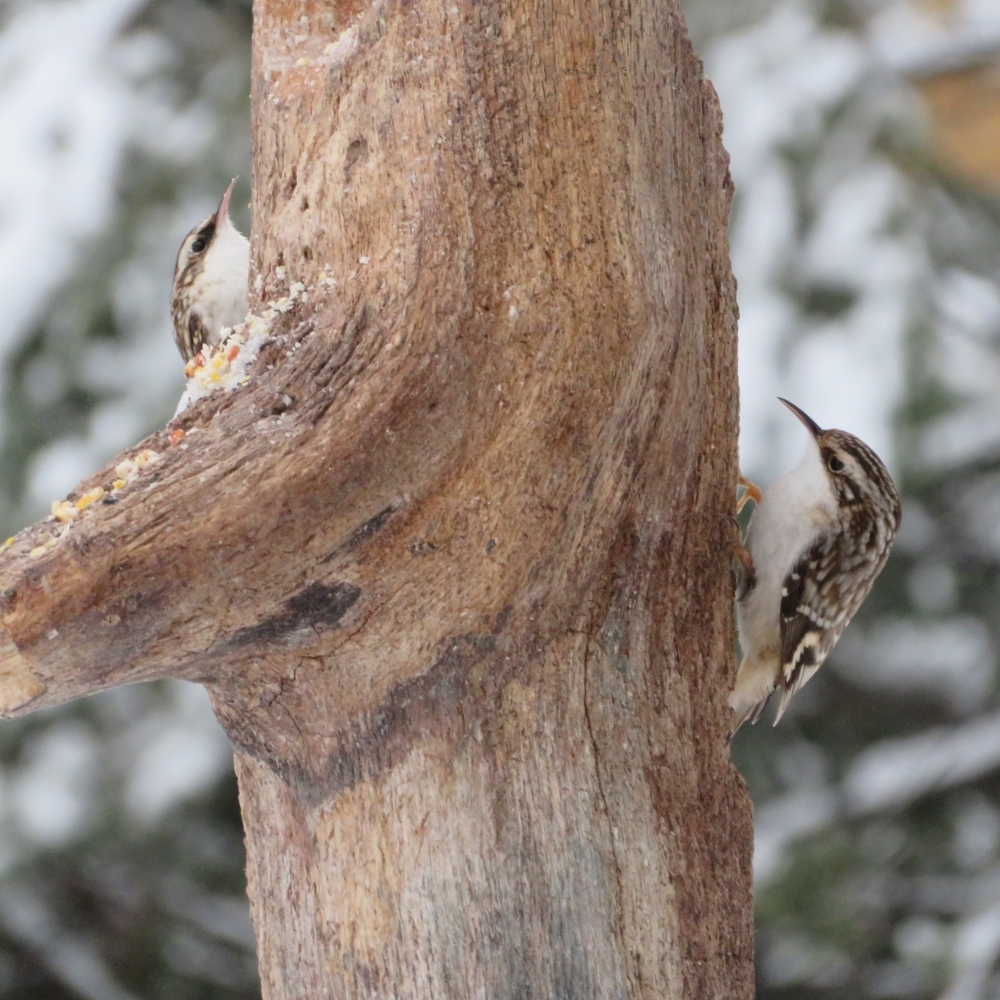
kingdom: Animalia
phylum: Chordata
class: Aves
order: Passeriformes
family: Certhiidae
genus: Certhia
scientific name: Certhia americana
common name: Brown creeper
